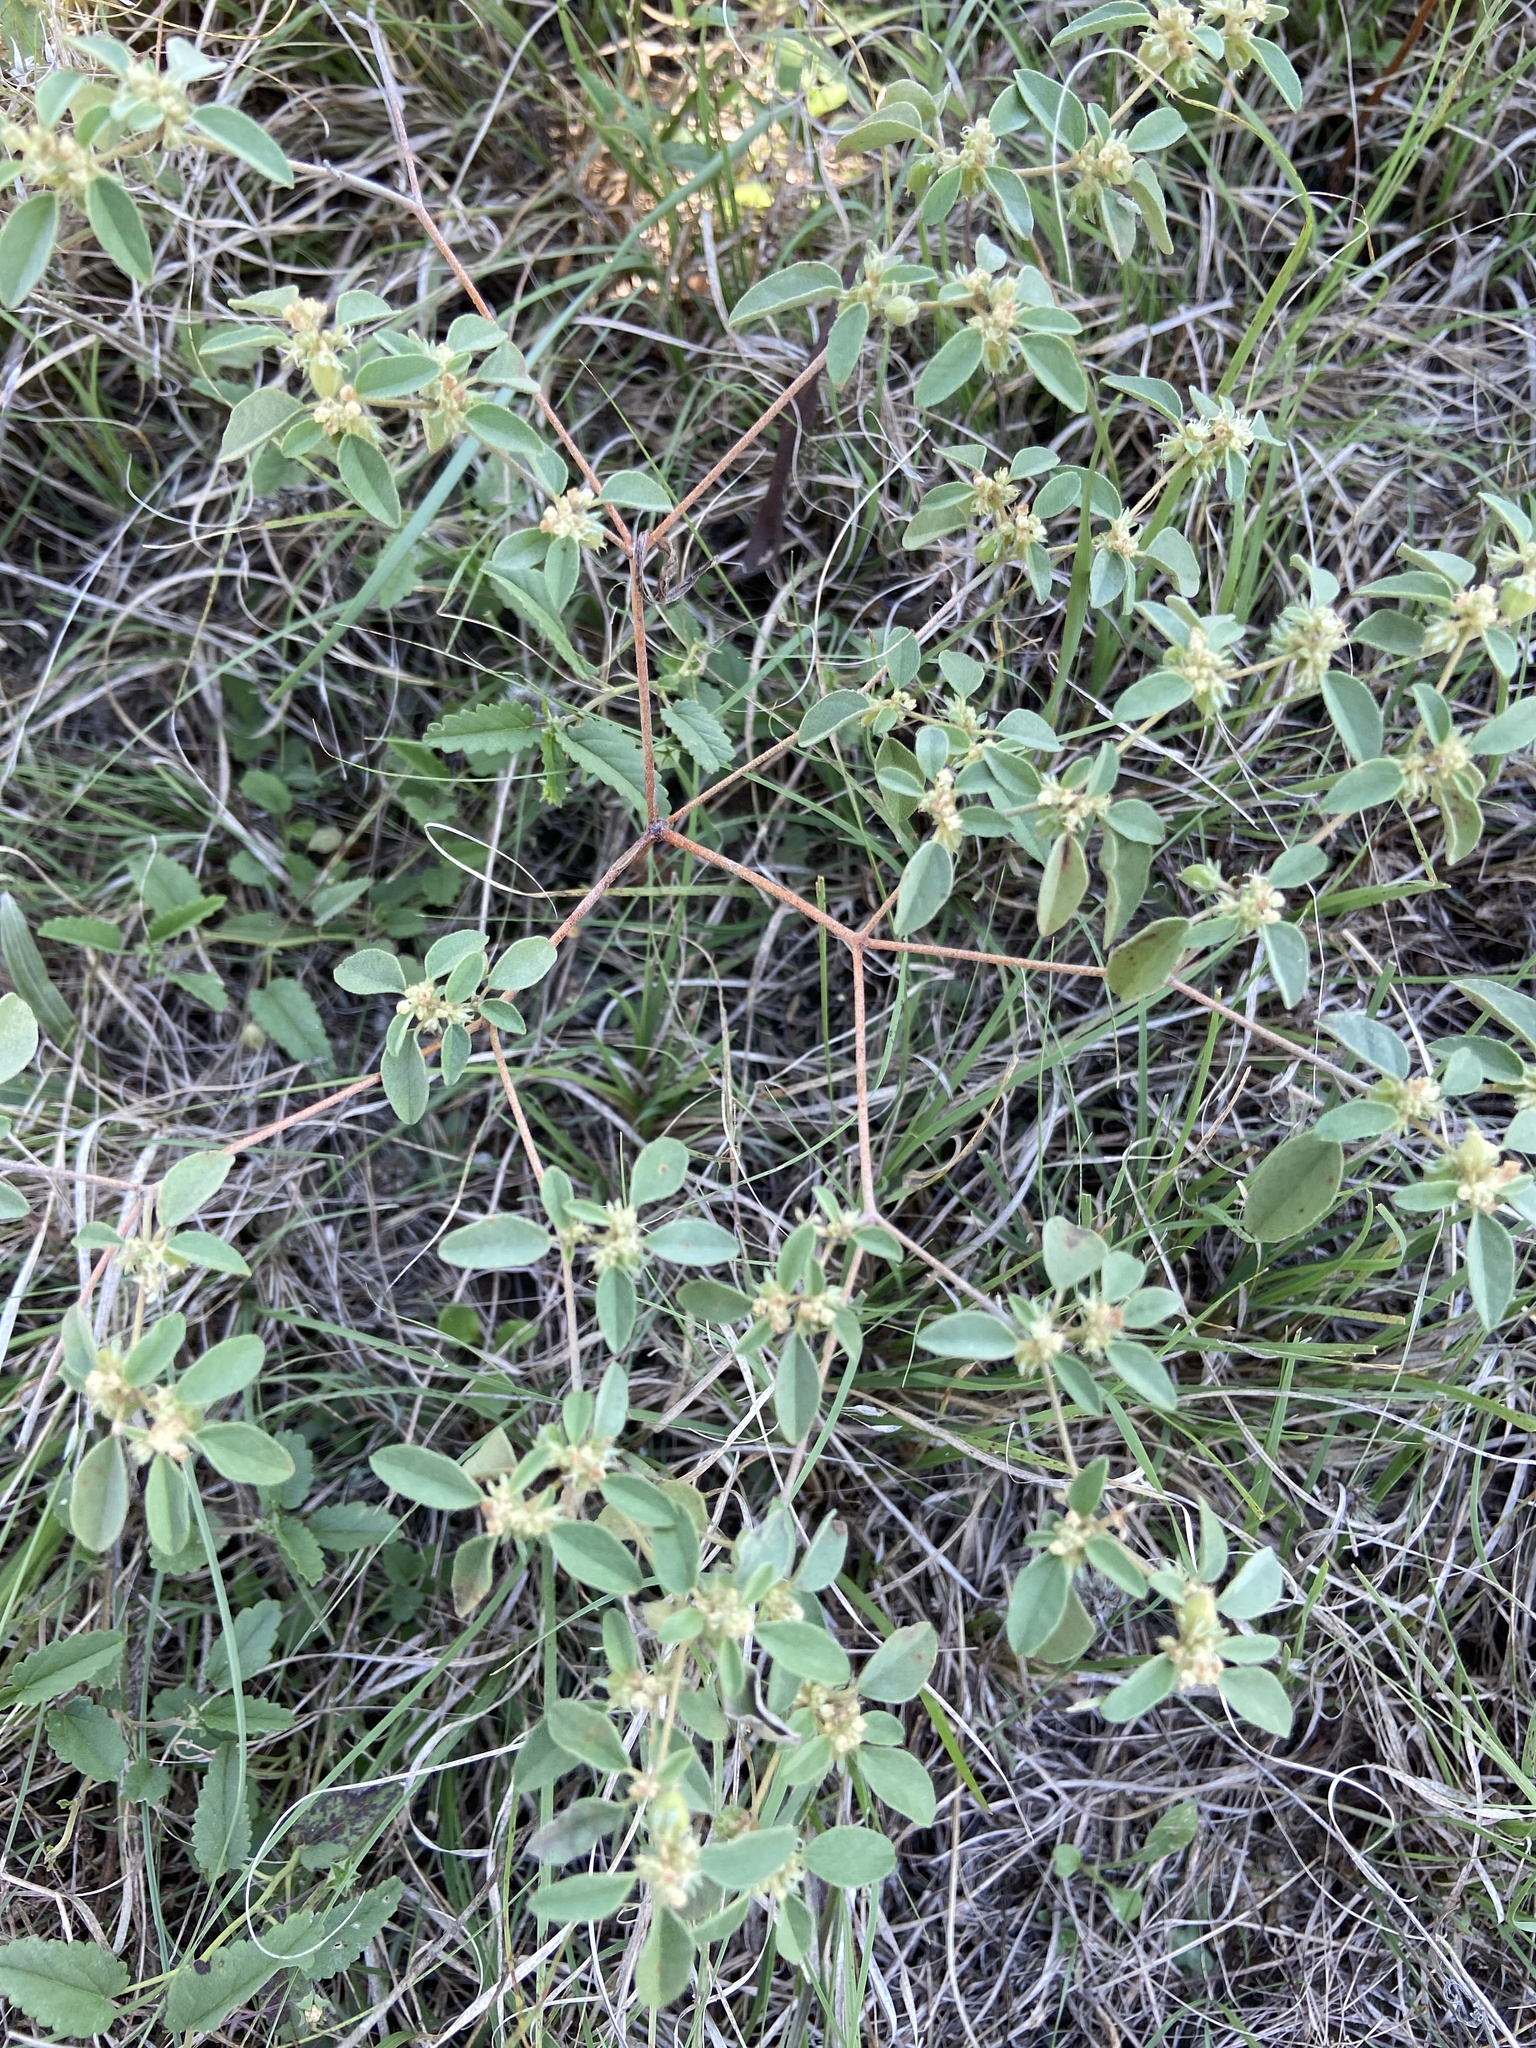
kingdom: Plantae
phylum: Tracheophyta
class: Magnoliopsida
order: Malpighiales
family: Euphorbiaceae
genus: Croton
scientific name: Croton monanthogynus
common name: One-seed croton
